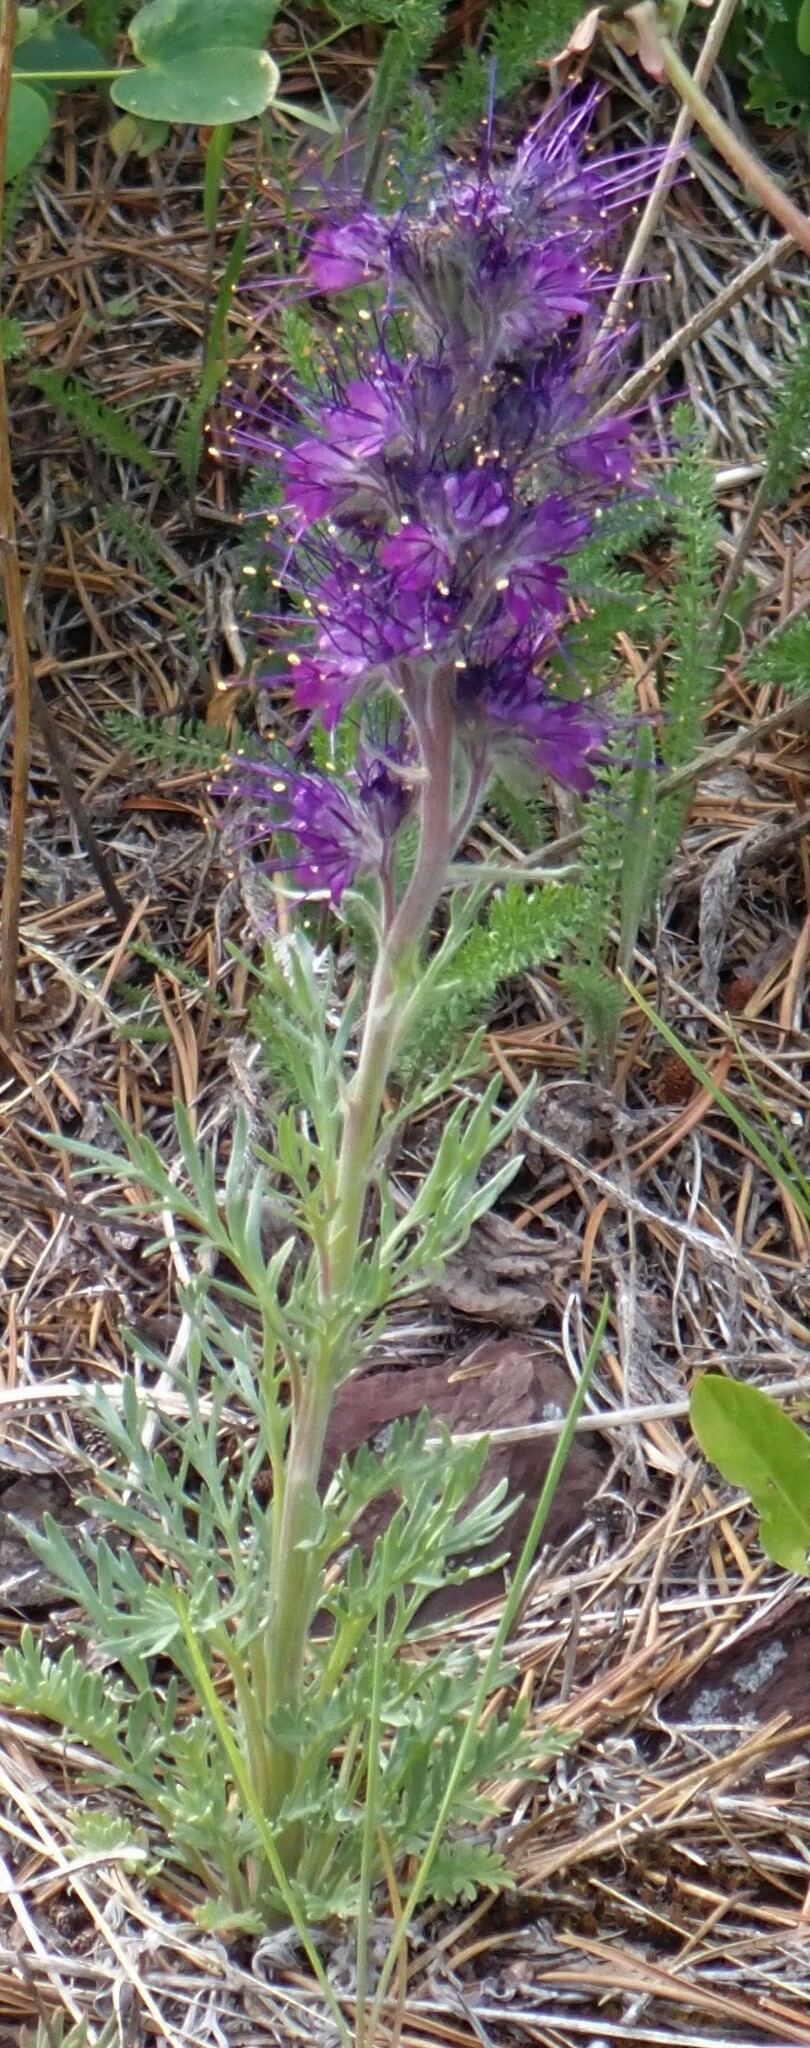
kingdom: Plantae
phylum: Tracheophyta
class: Magnoliopsida
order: Boraginales
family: Hydrophyllaceae
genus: Phacelia
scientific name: Phacelia sericea
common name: Silky phacelia
